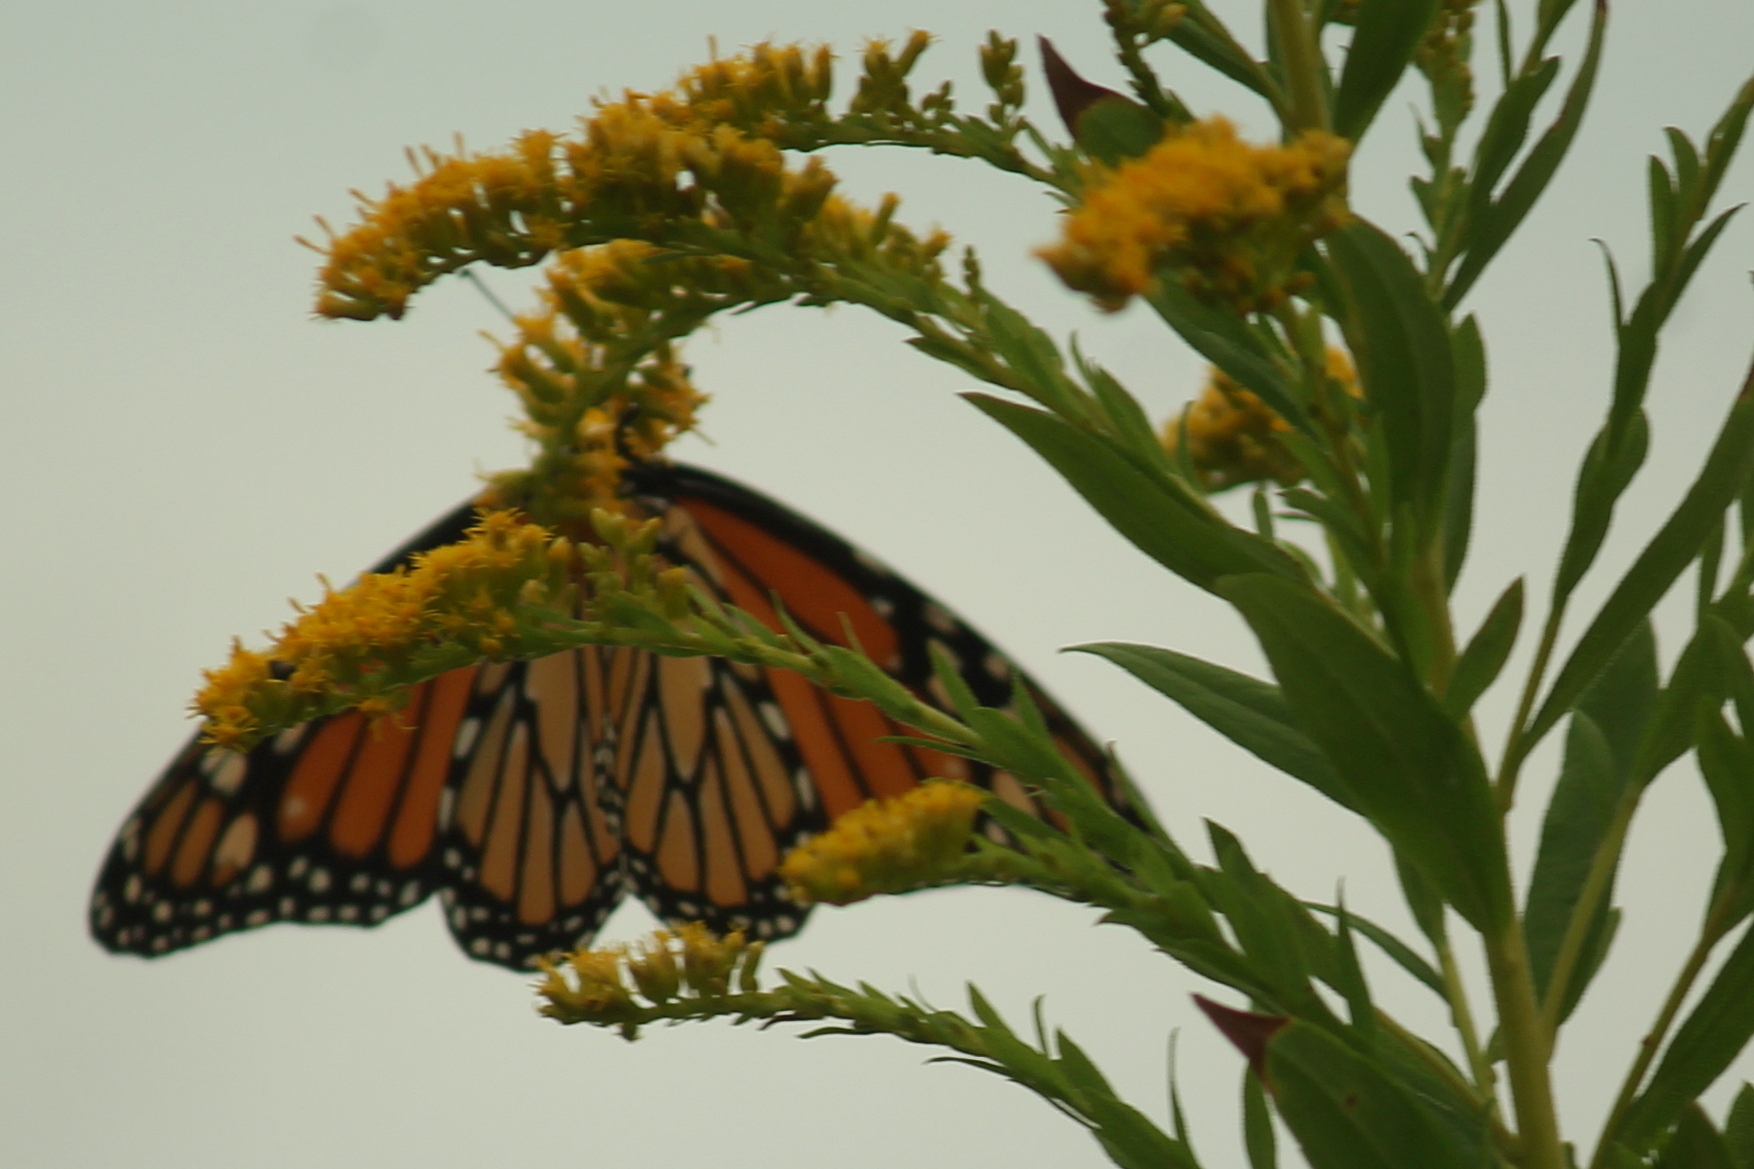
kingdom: Animalia
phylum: Arthropoda
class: Insecta
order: Lepidoptera
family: Nymphalidae
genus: Danaus
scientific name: Danaus plexippus
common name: Monarch
